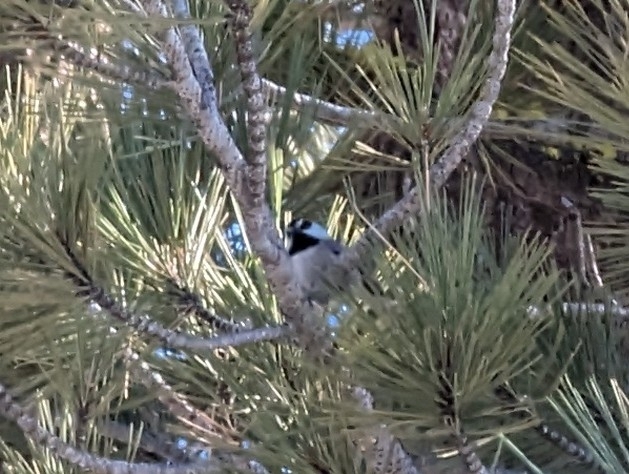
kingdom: Animalia
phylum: Chordata
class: Aves
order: Passeriformes
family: Paridae
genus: Poecile
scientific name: Poecile gambeli
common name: Mountain chickadee
